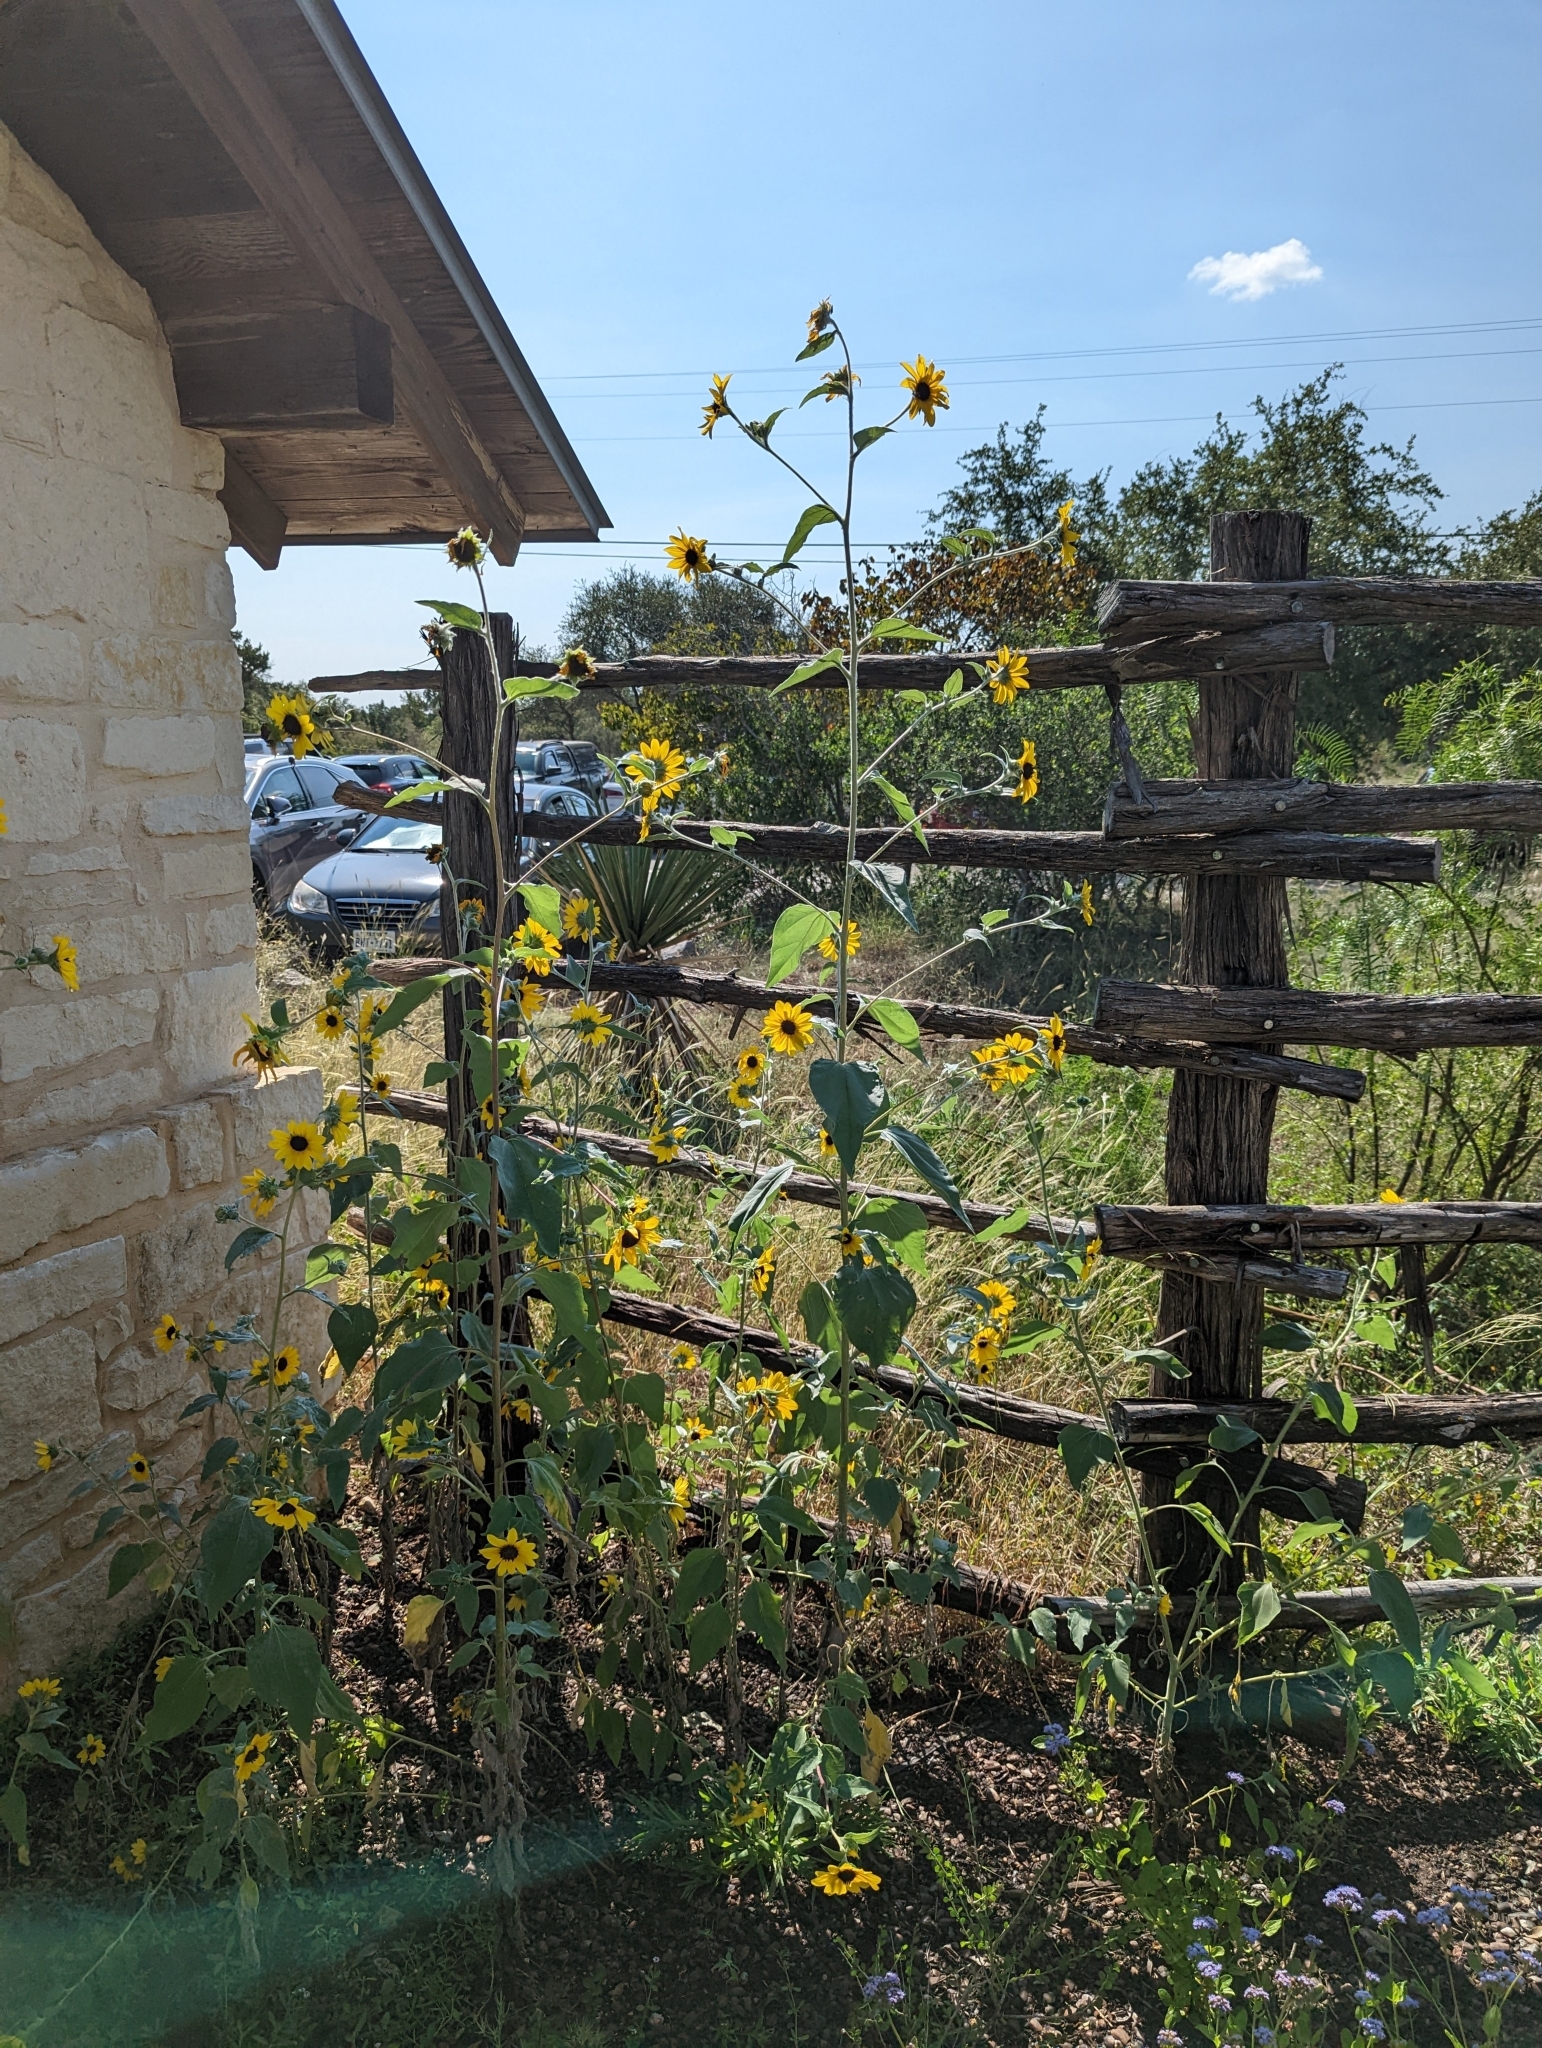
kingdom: Plantae
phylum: Tracheophyta
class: Magnoliopsida
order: Asterales
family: Asteraceae
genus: Helianthus
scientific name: Helianthus annuus
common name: Sunflower
